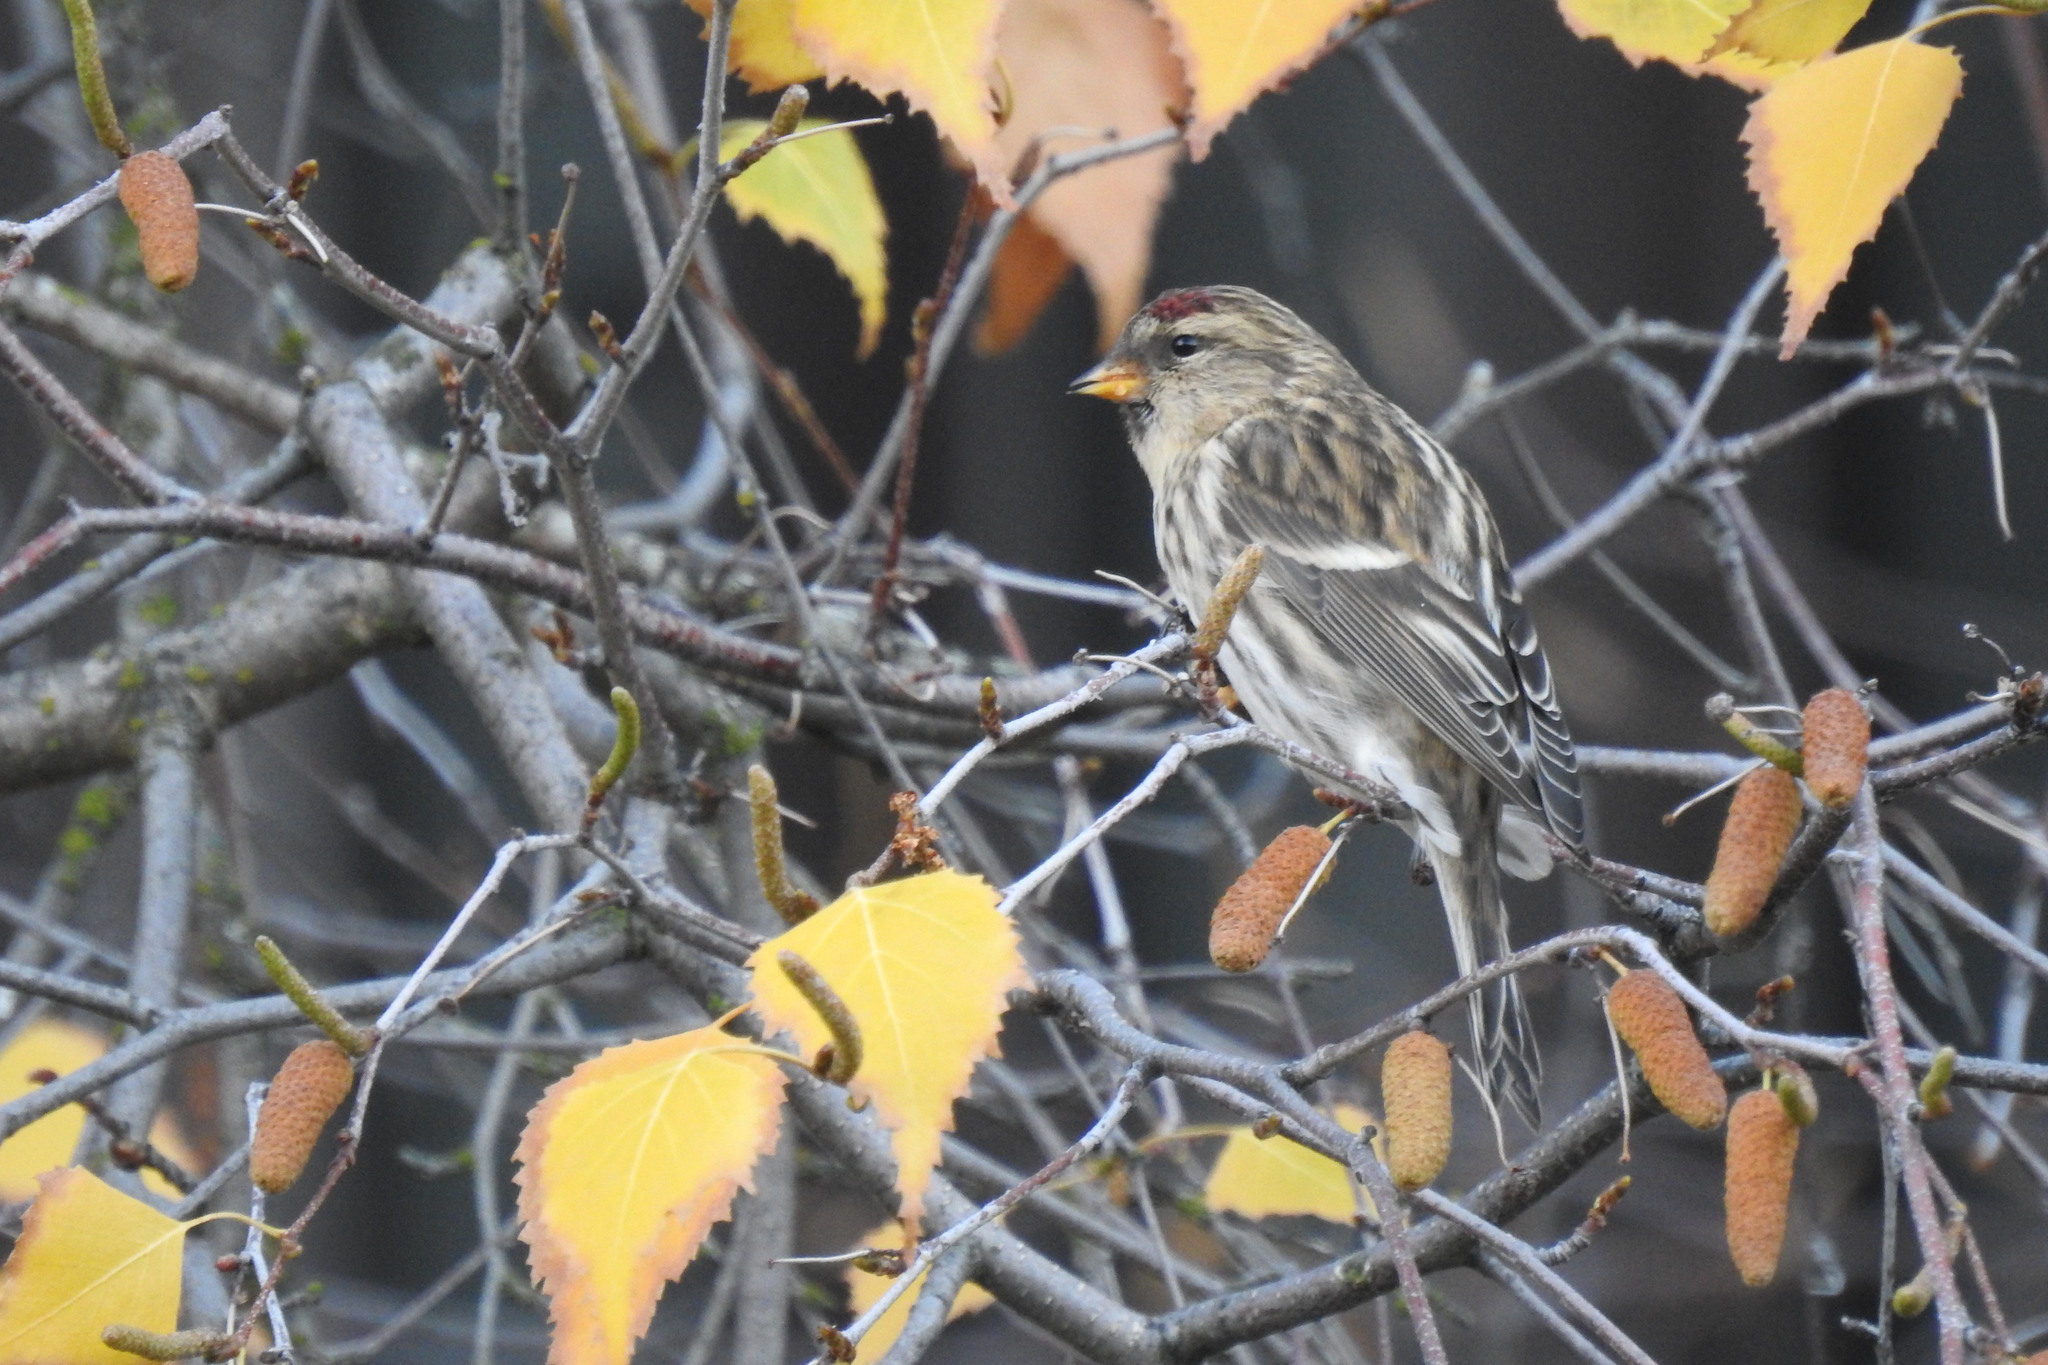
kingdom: Animalia
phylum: Chordata
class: Aves
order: Passeriformes
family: Fringillidae
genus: Acanthis
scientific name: Acanthis flammea
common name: Common redpoll
